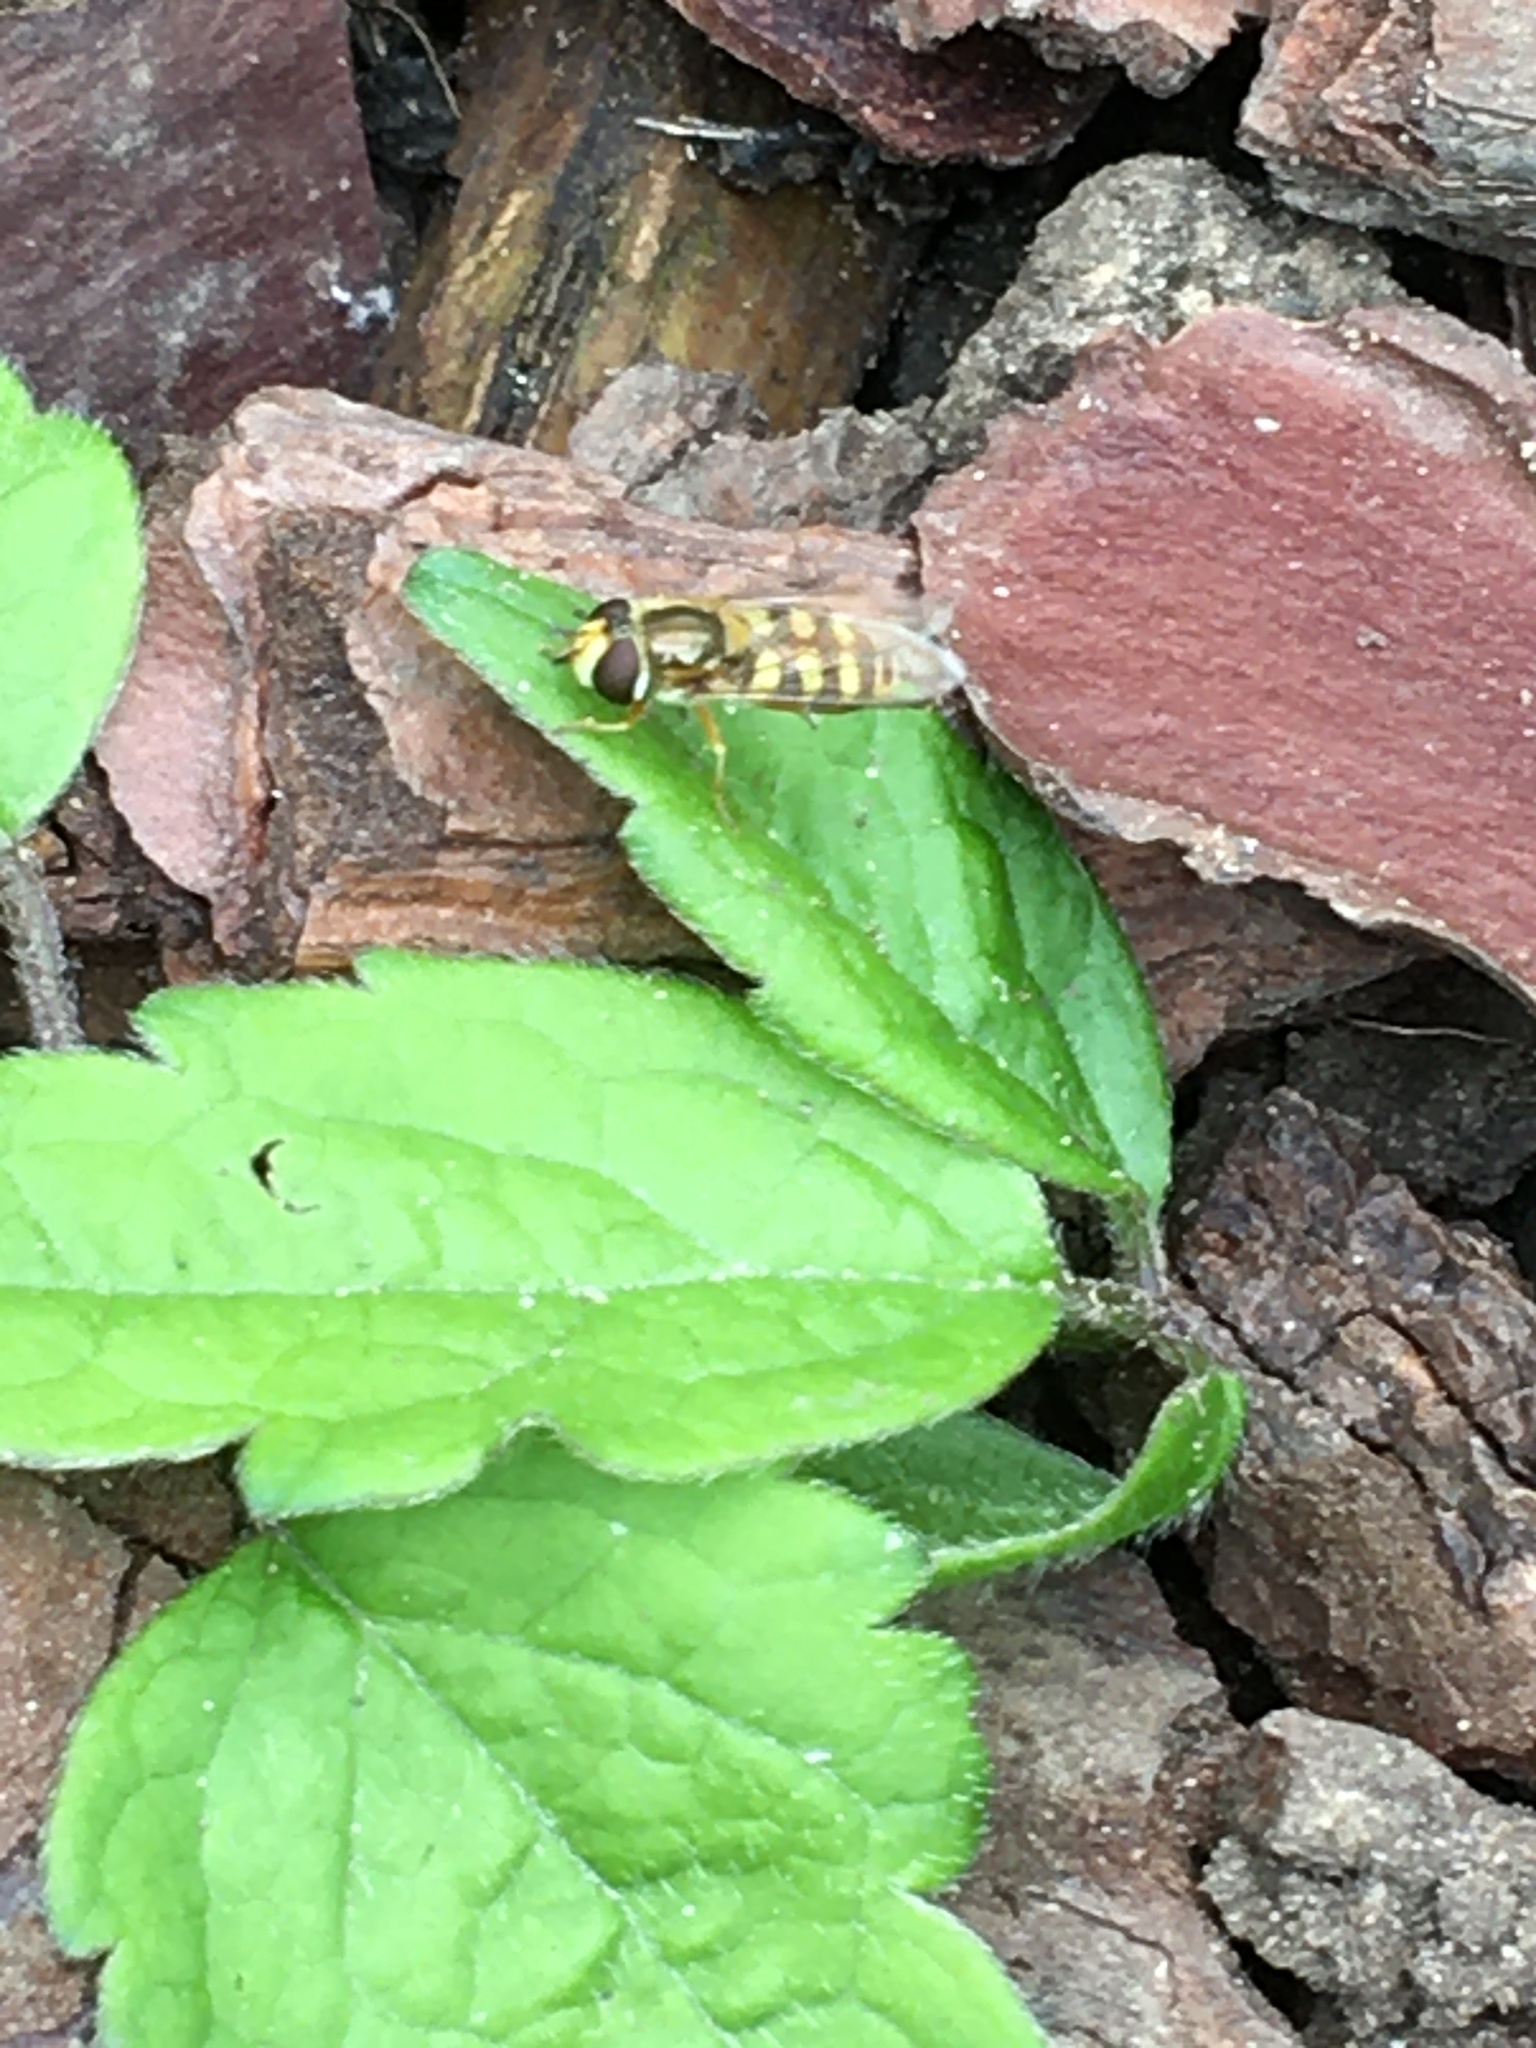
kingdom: Animalia
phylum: Arthropoda
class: Insecta
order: Diptera
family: Syrphidae
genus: Eupeodes
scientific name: Eupeodes corollae
